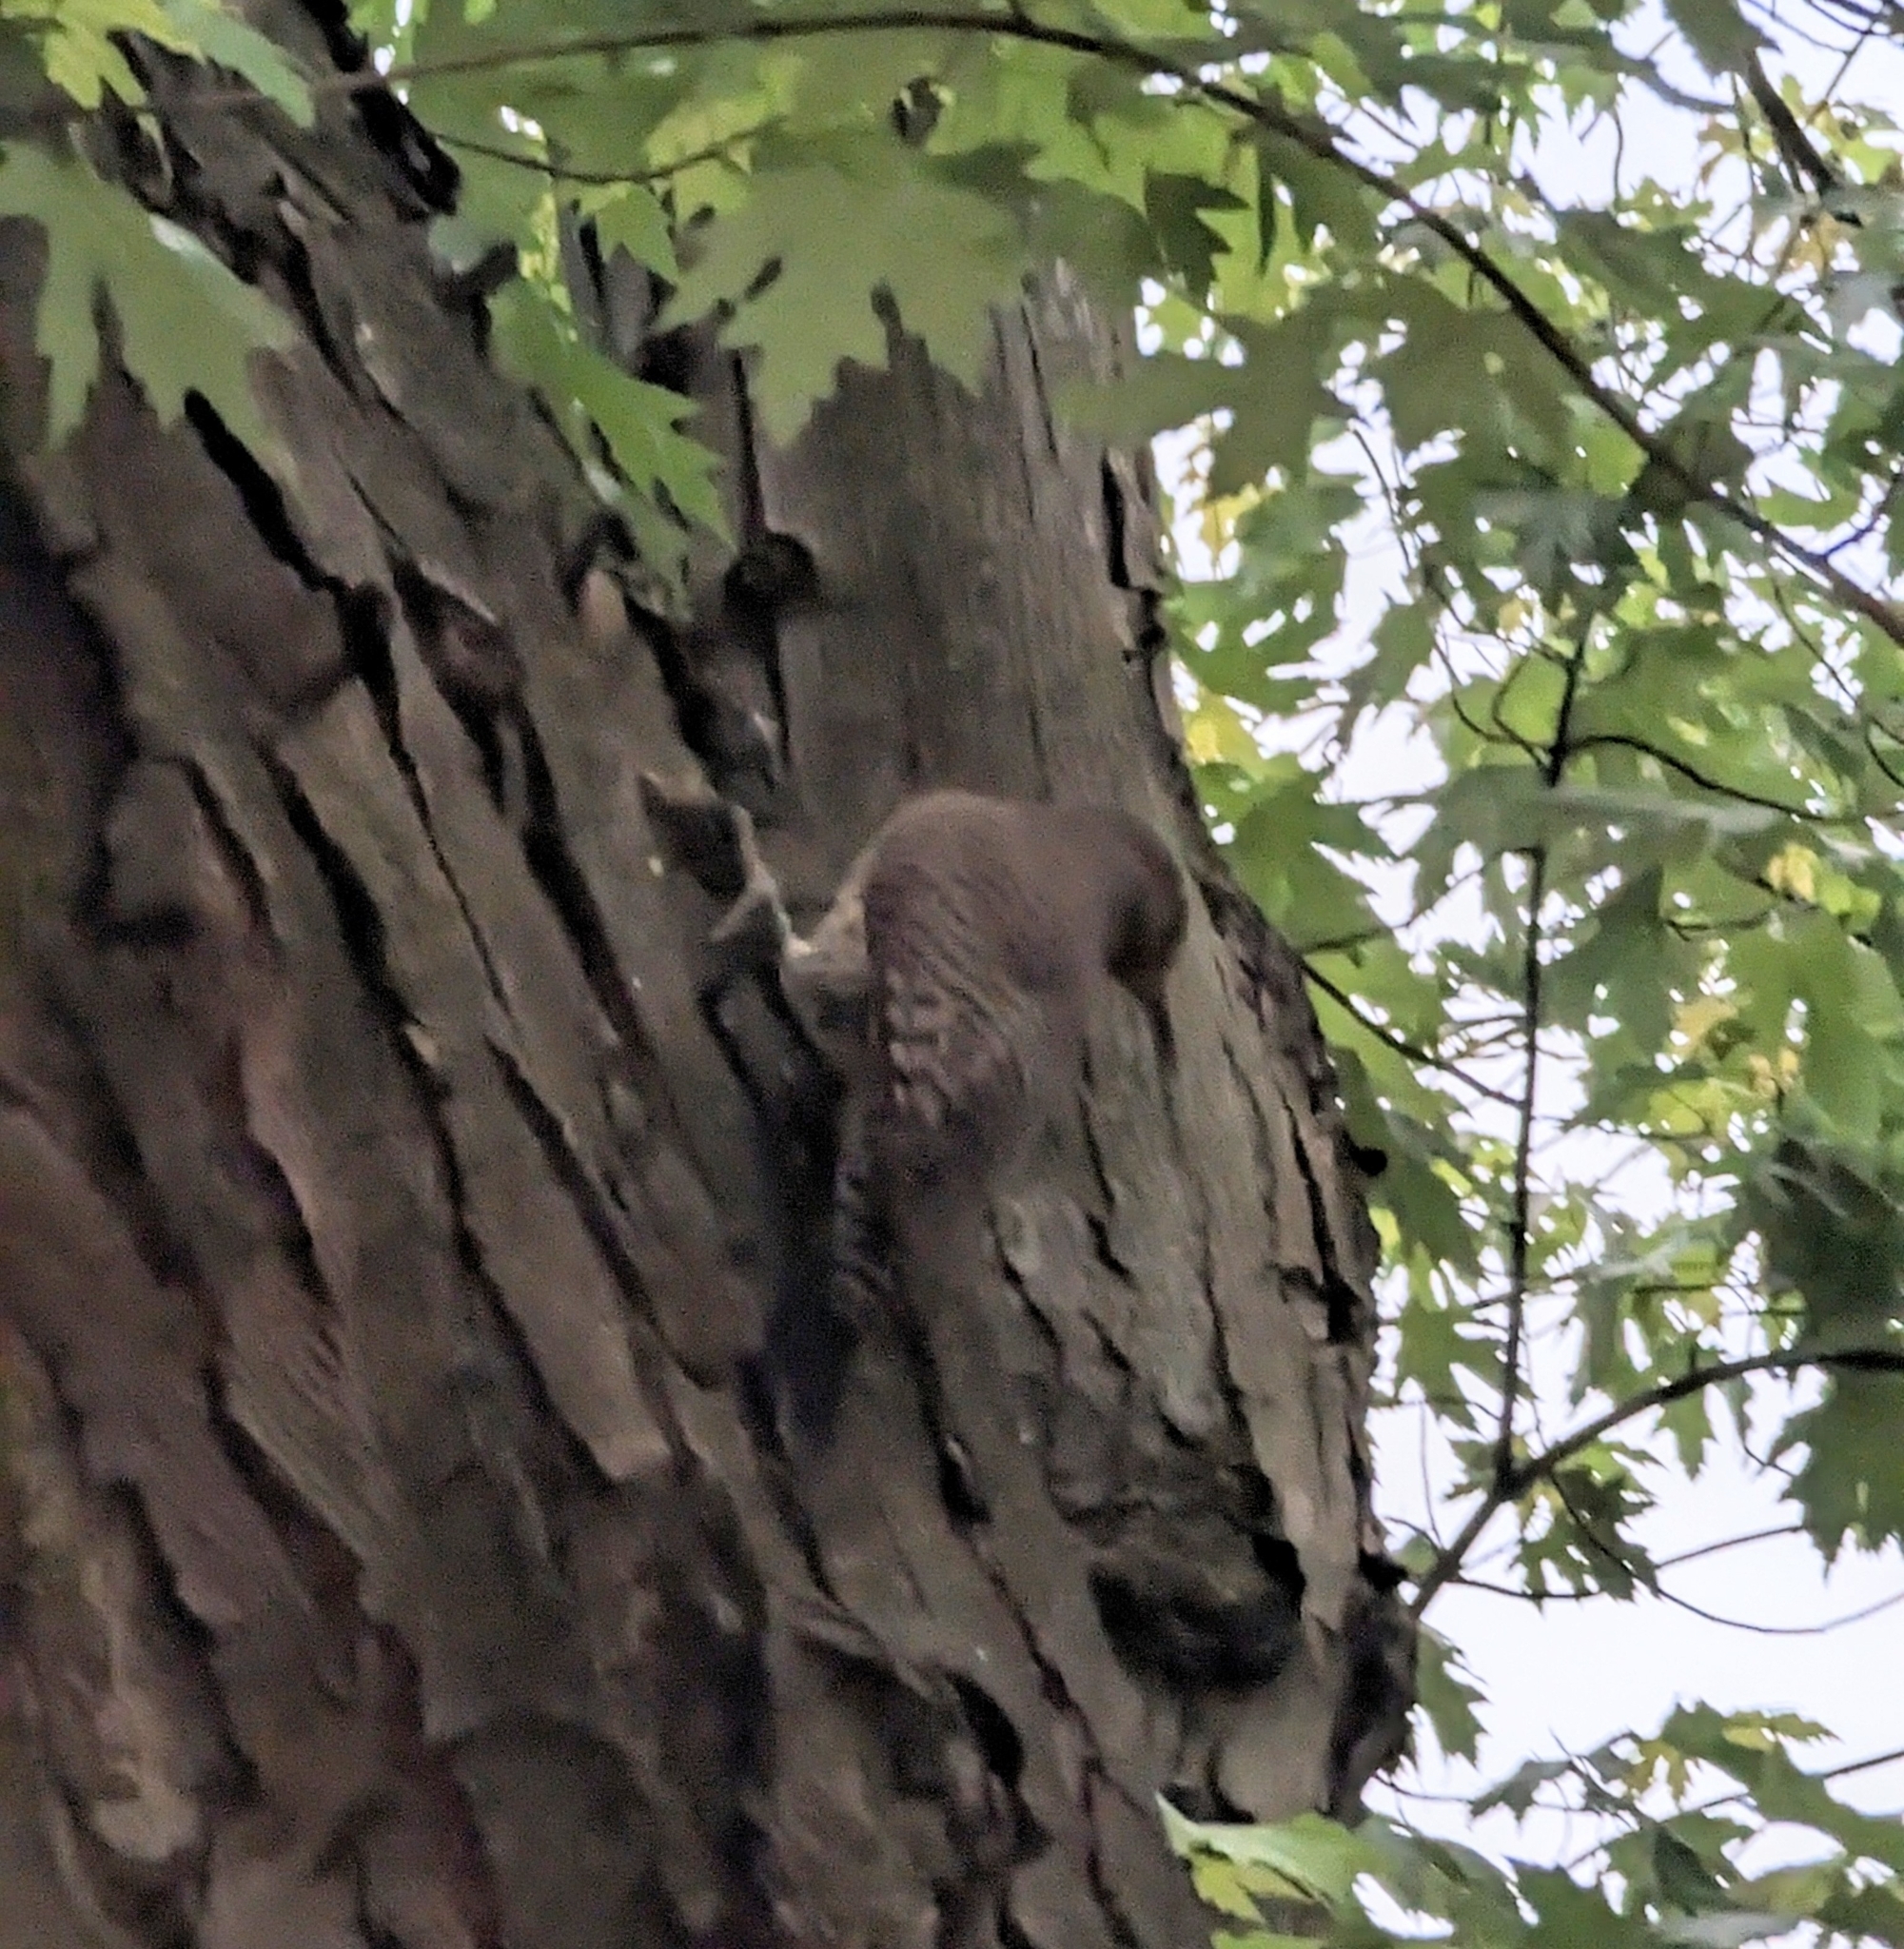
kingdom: Animalia
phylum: Chordata
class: Aves
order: Piciformes
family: Picidae
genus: Colaptes
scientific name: Colaptes auratus
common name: Northern flicker
